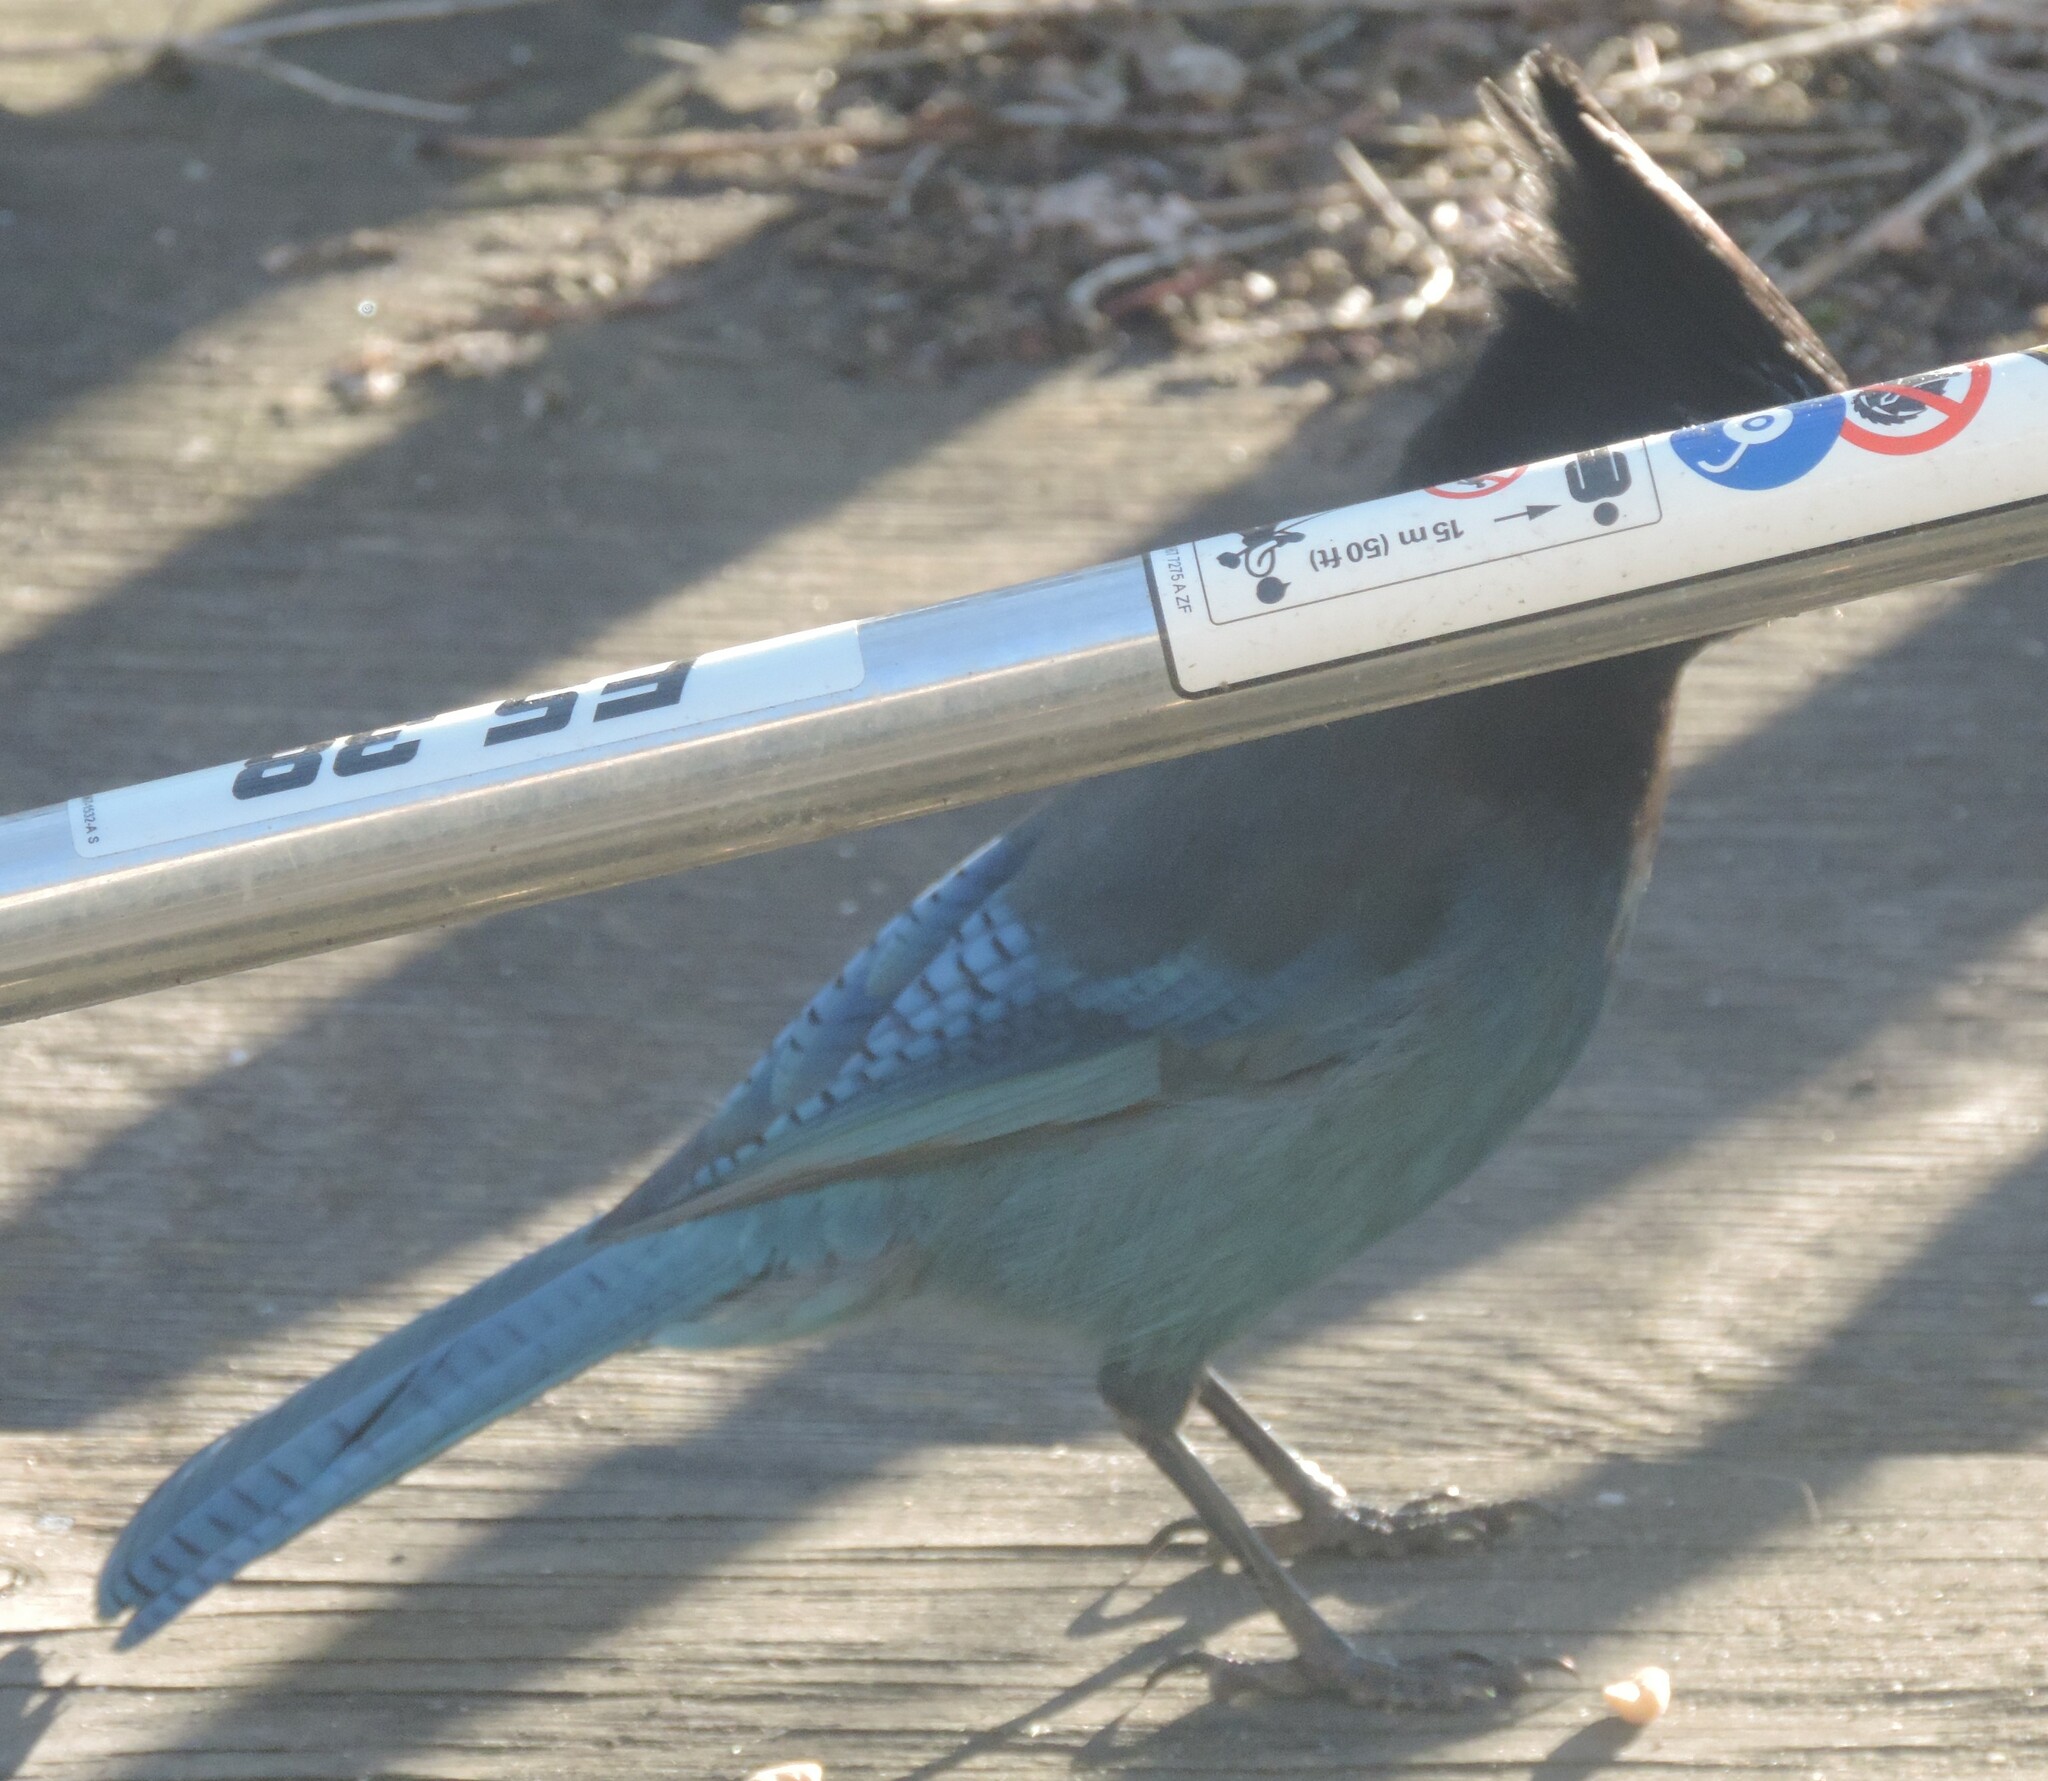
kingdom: Animalia
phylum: Chordata
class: Aves
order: Passeriformes
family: Corvidae
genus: Cyanocitta
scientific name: Cyanocitta stelleri
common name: Steller's jay
